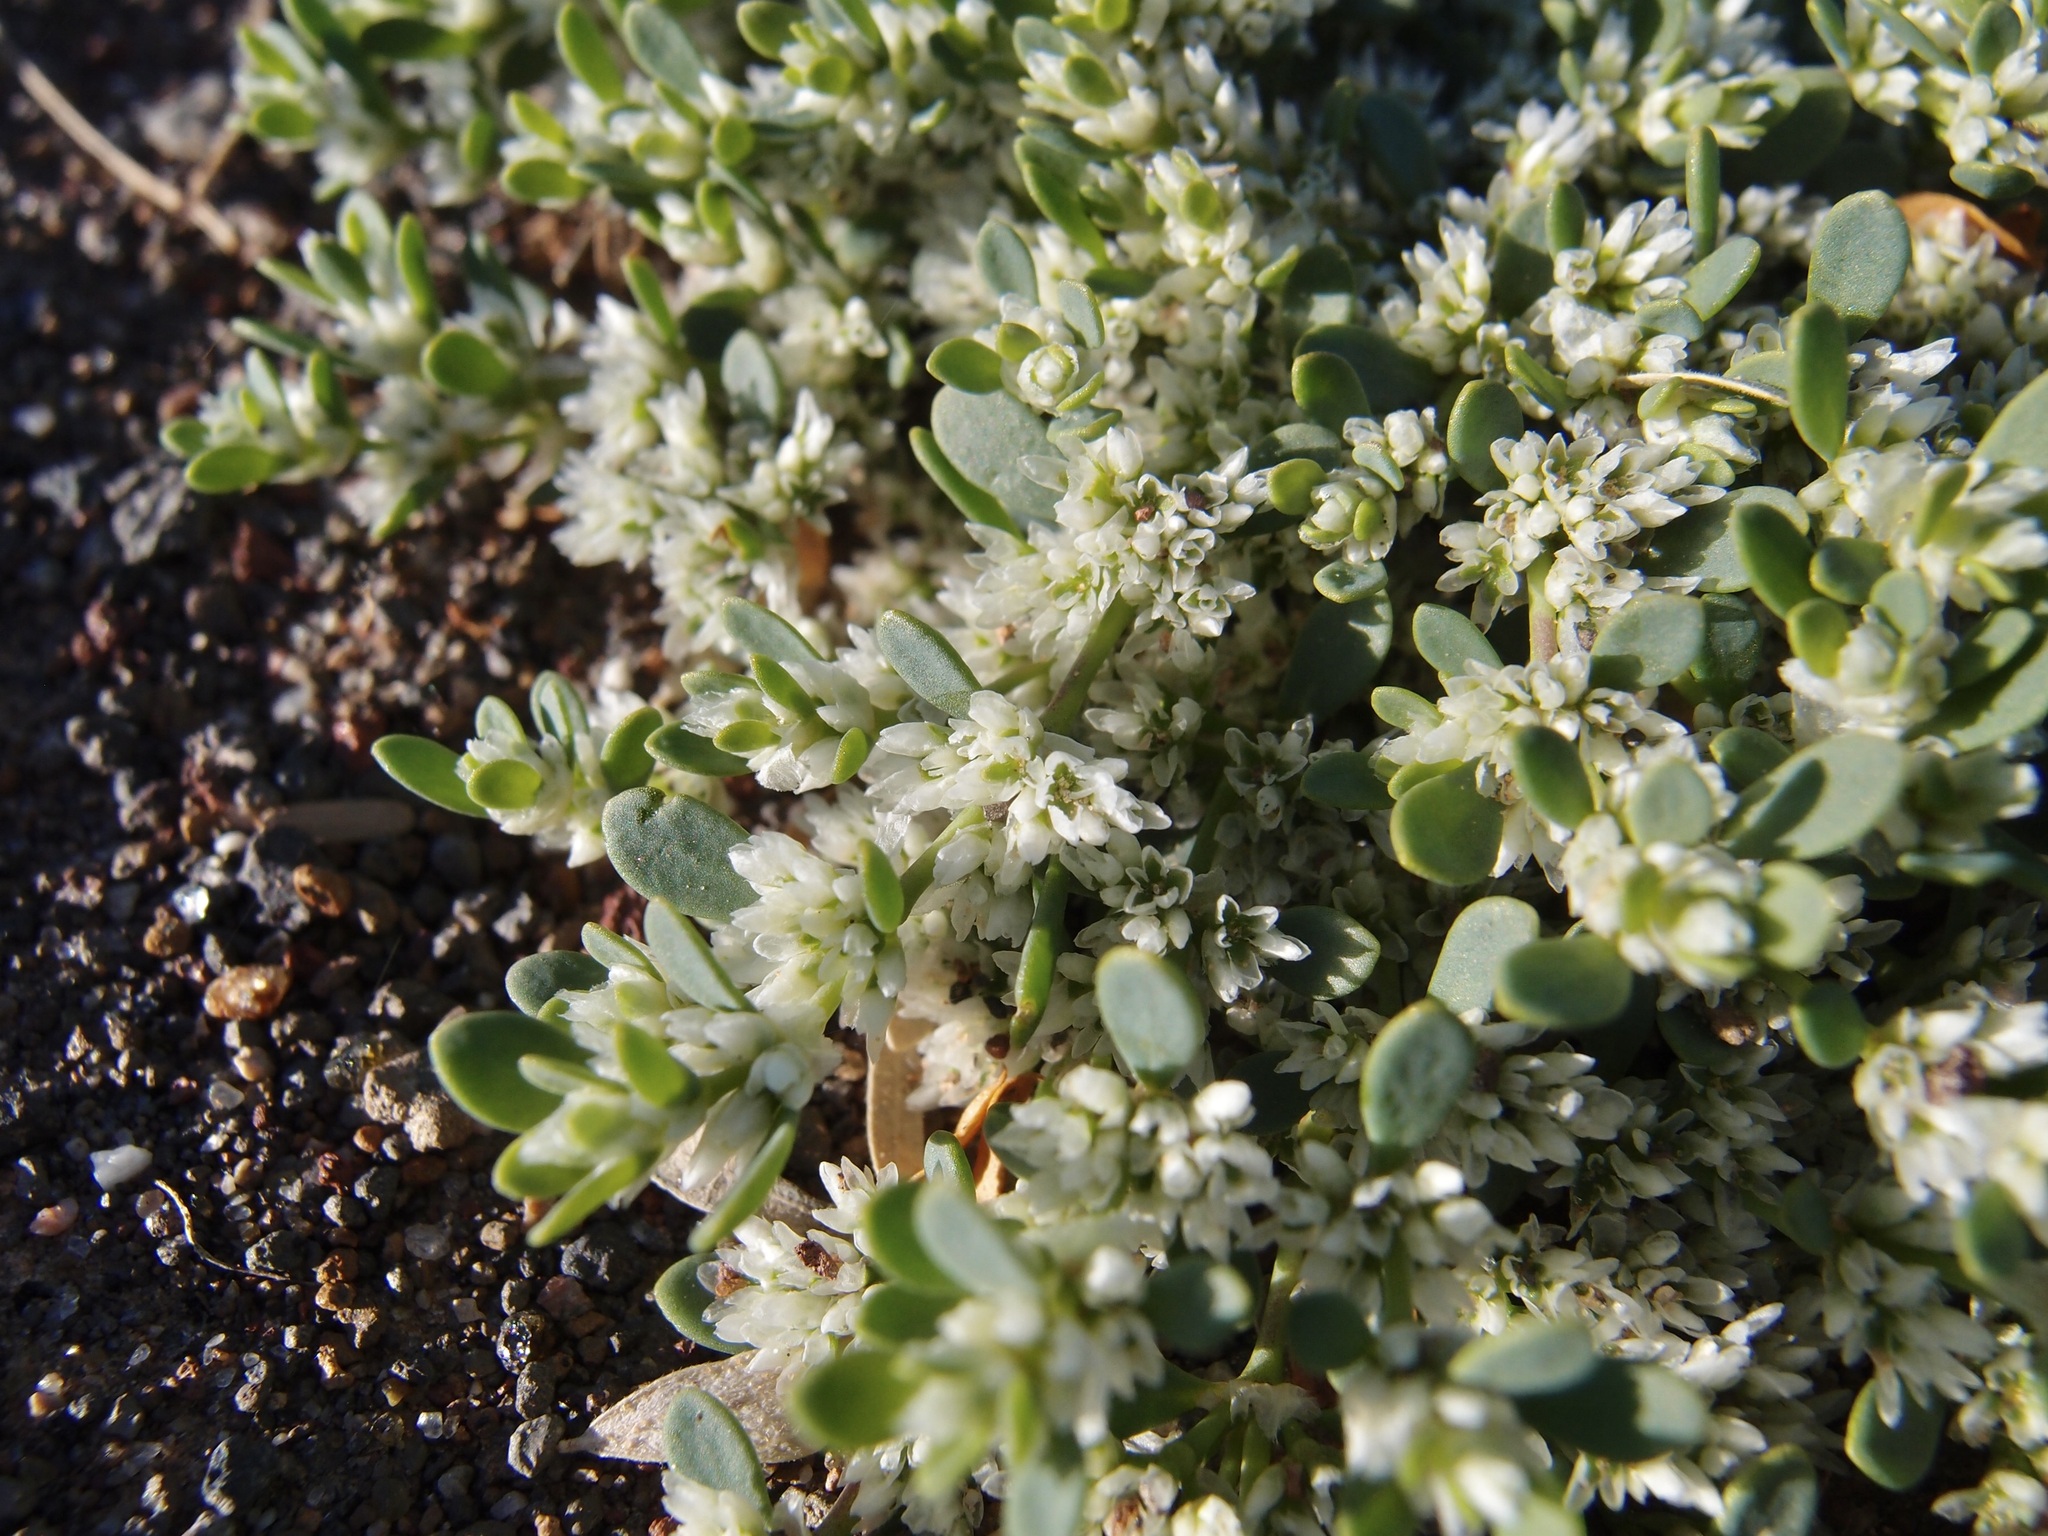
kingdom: Plantae
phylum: Tracheophyta
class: Magnoliopsida
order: Caryophyllales
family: Caryophyllaceae
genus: Achyronychia
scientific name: Achyronychia cooperi
